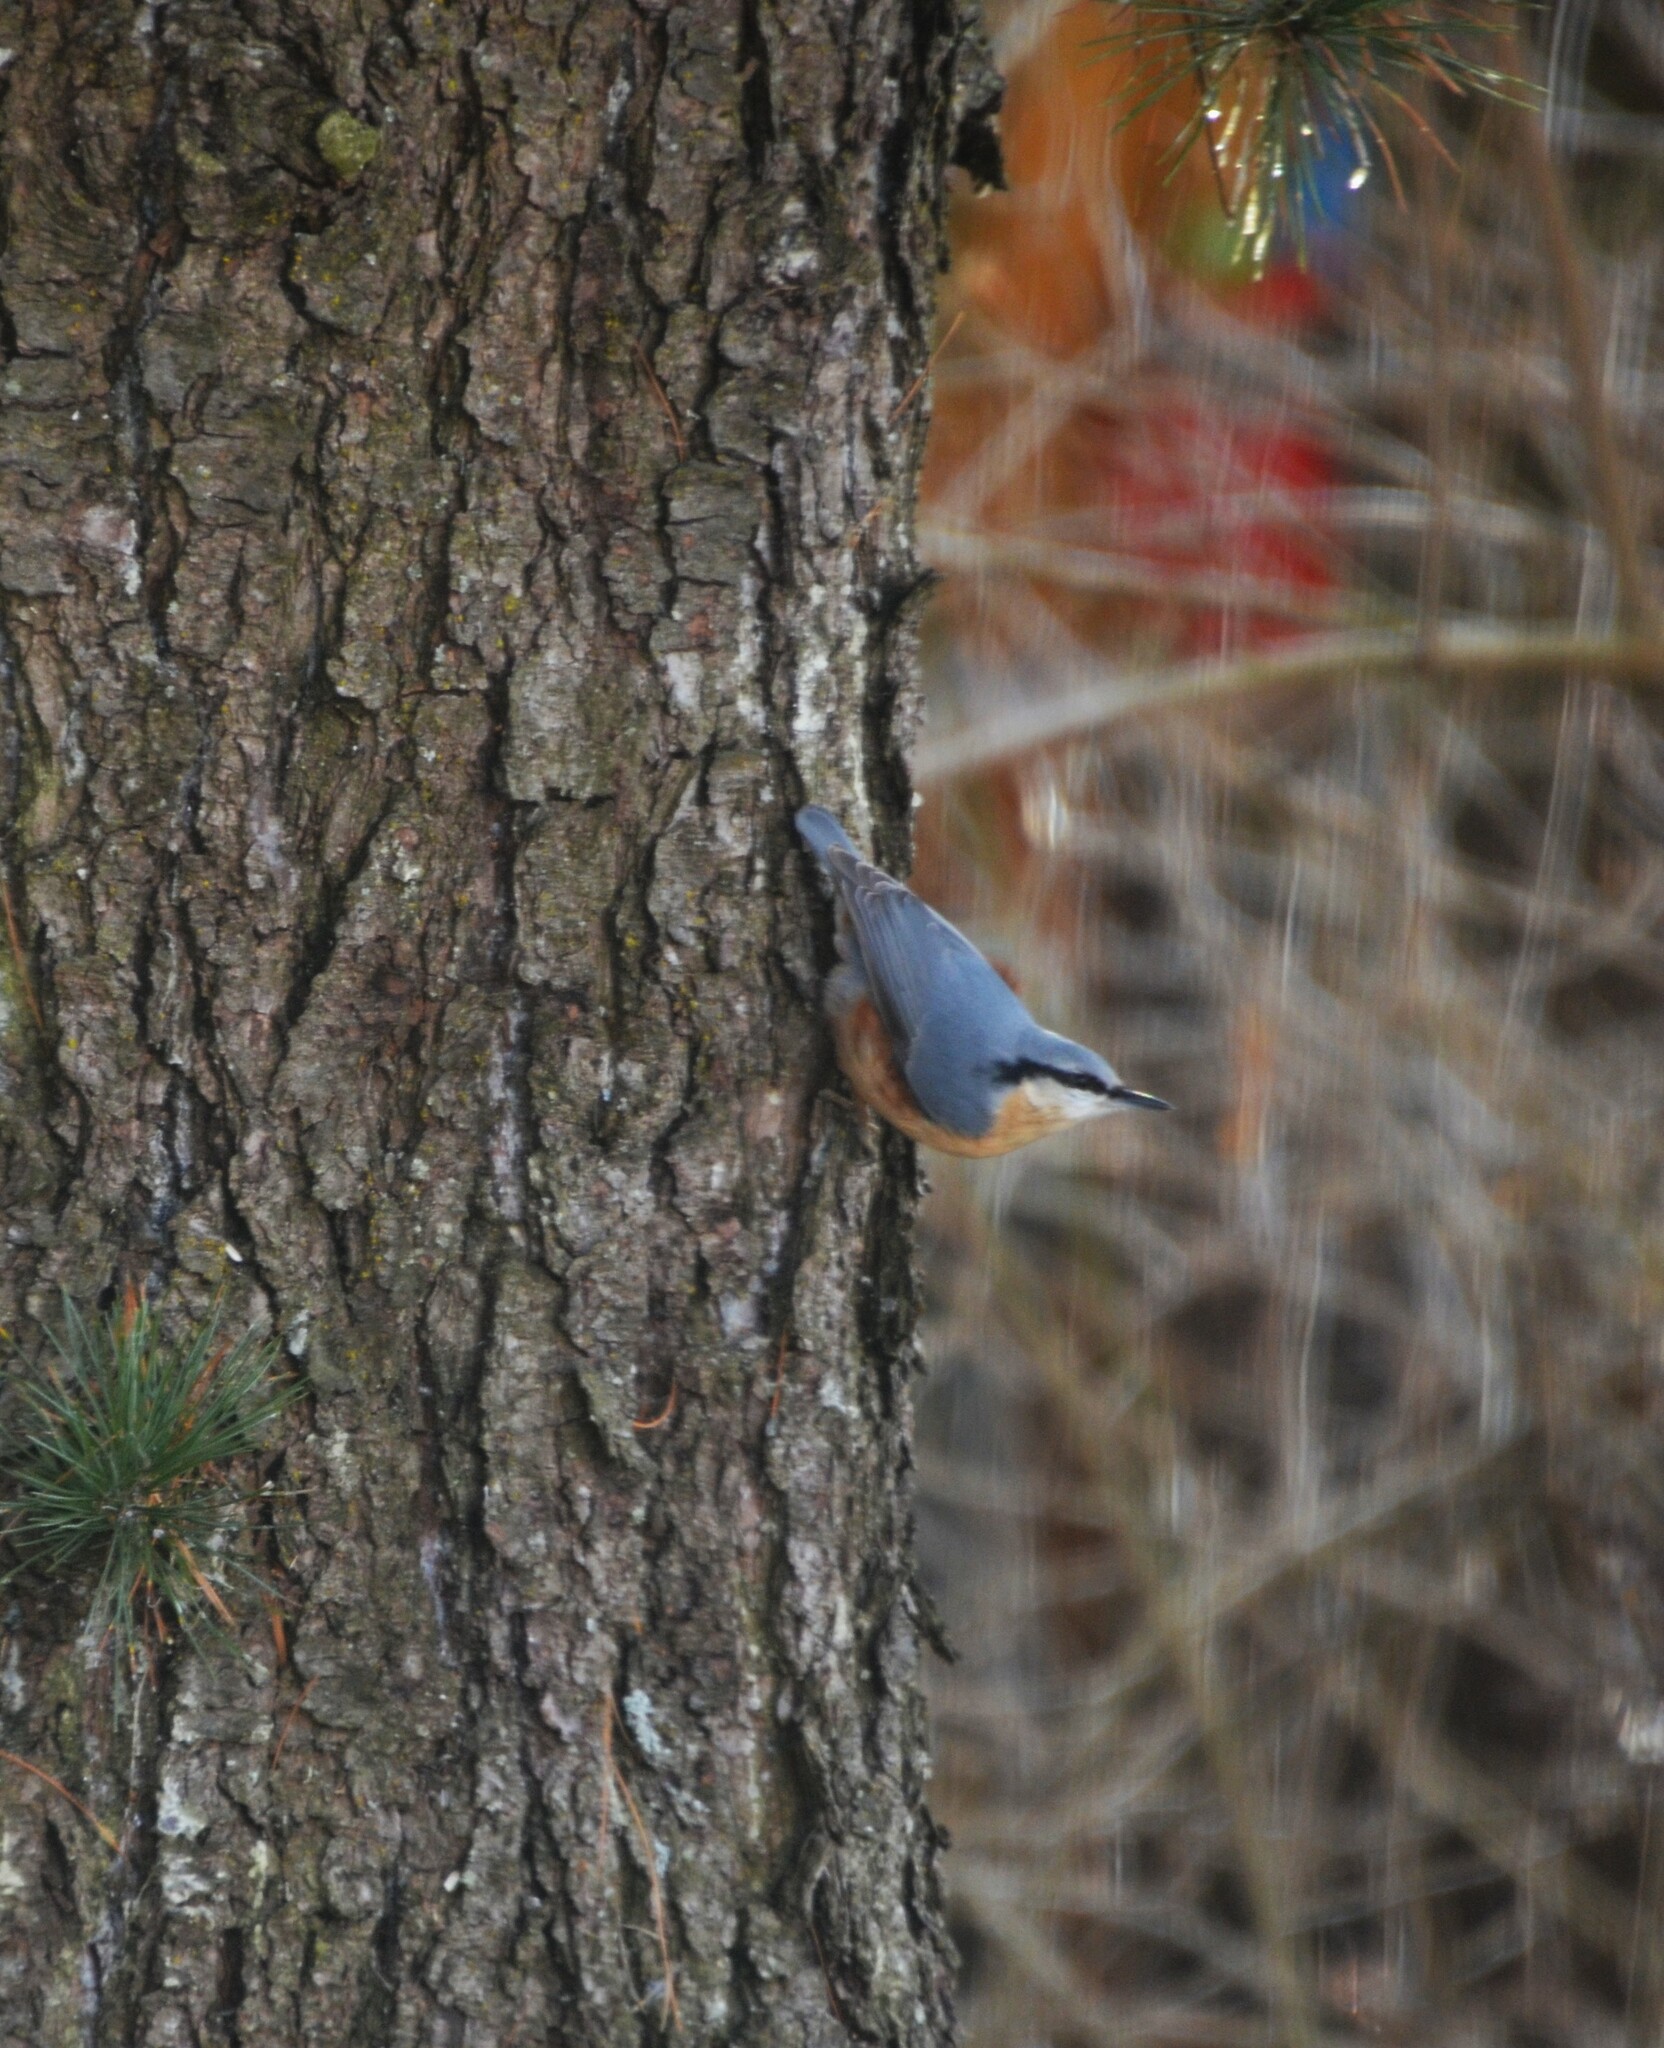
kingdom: Animalia
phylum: Chordata
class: Aves
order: Passeriformes
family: Sittidae
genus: Sitta
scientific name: Sitta europaea
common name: Eurasian nuthatch
